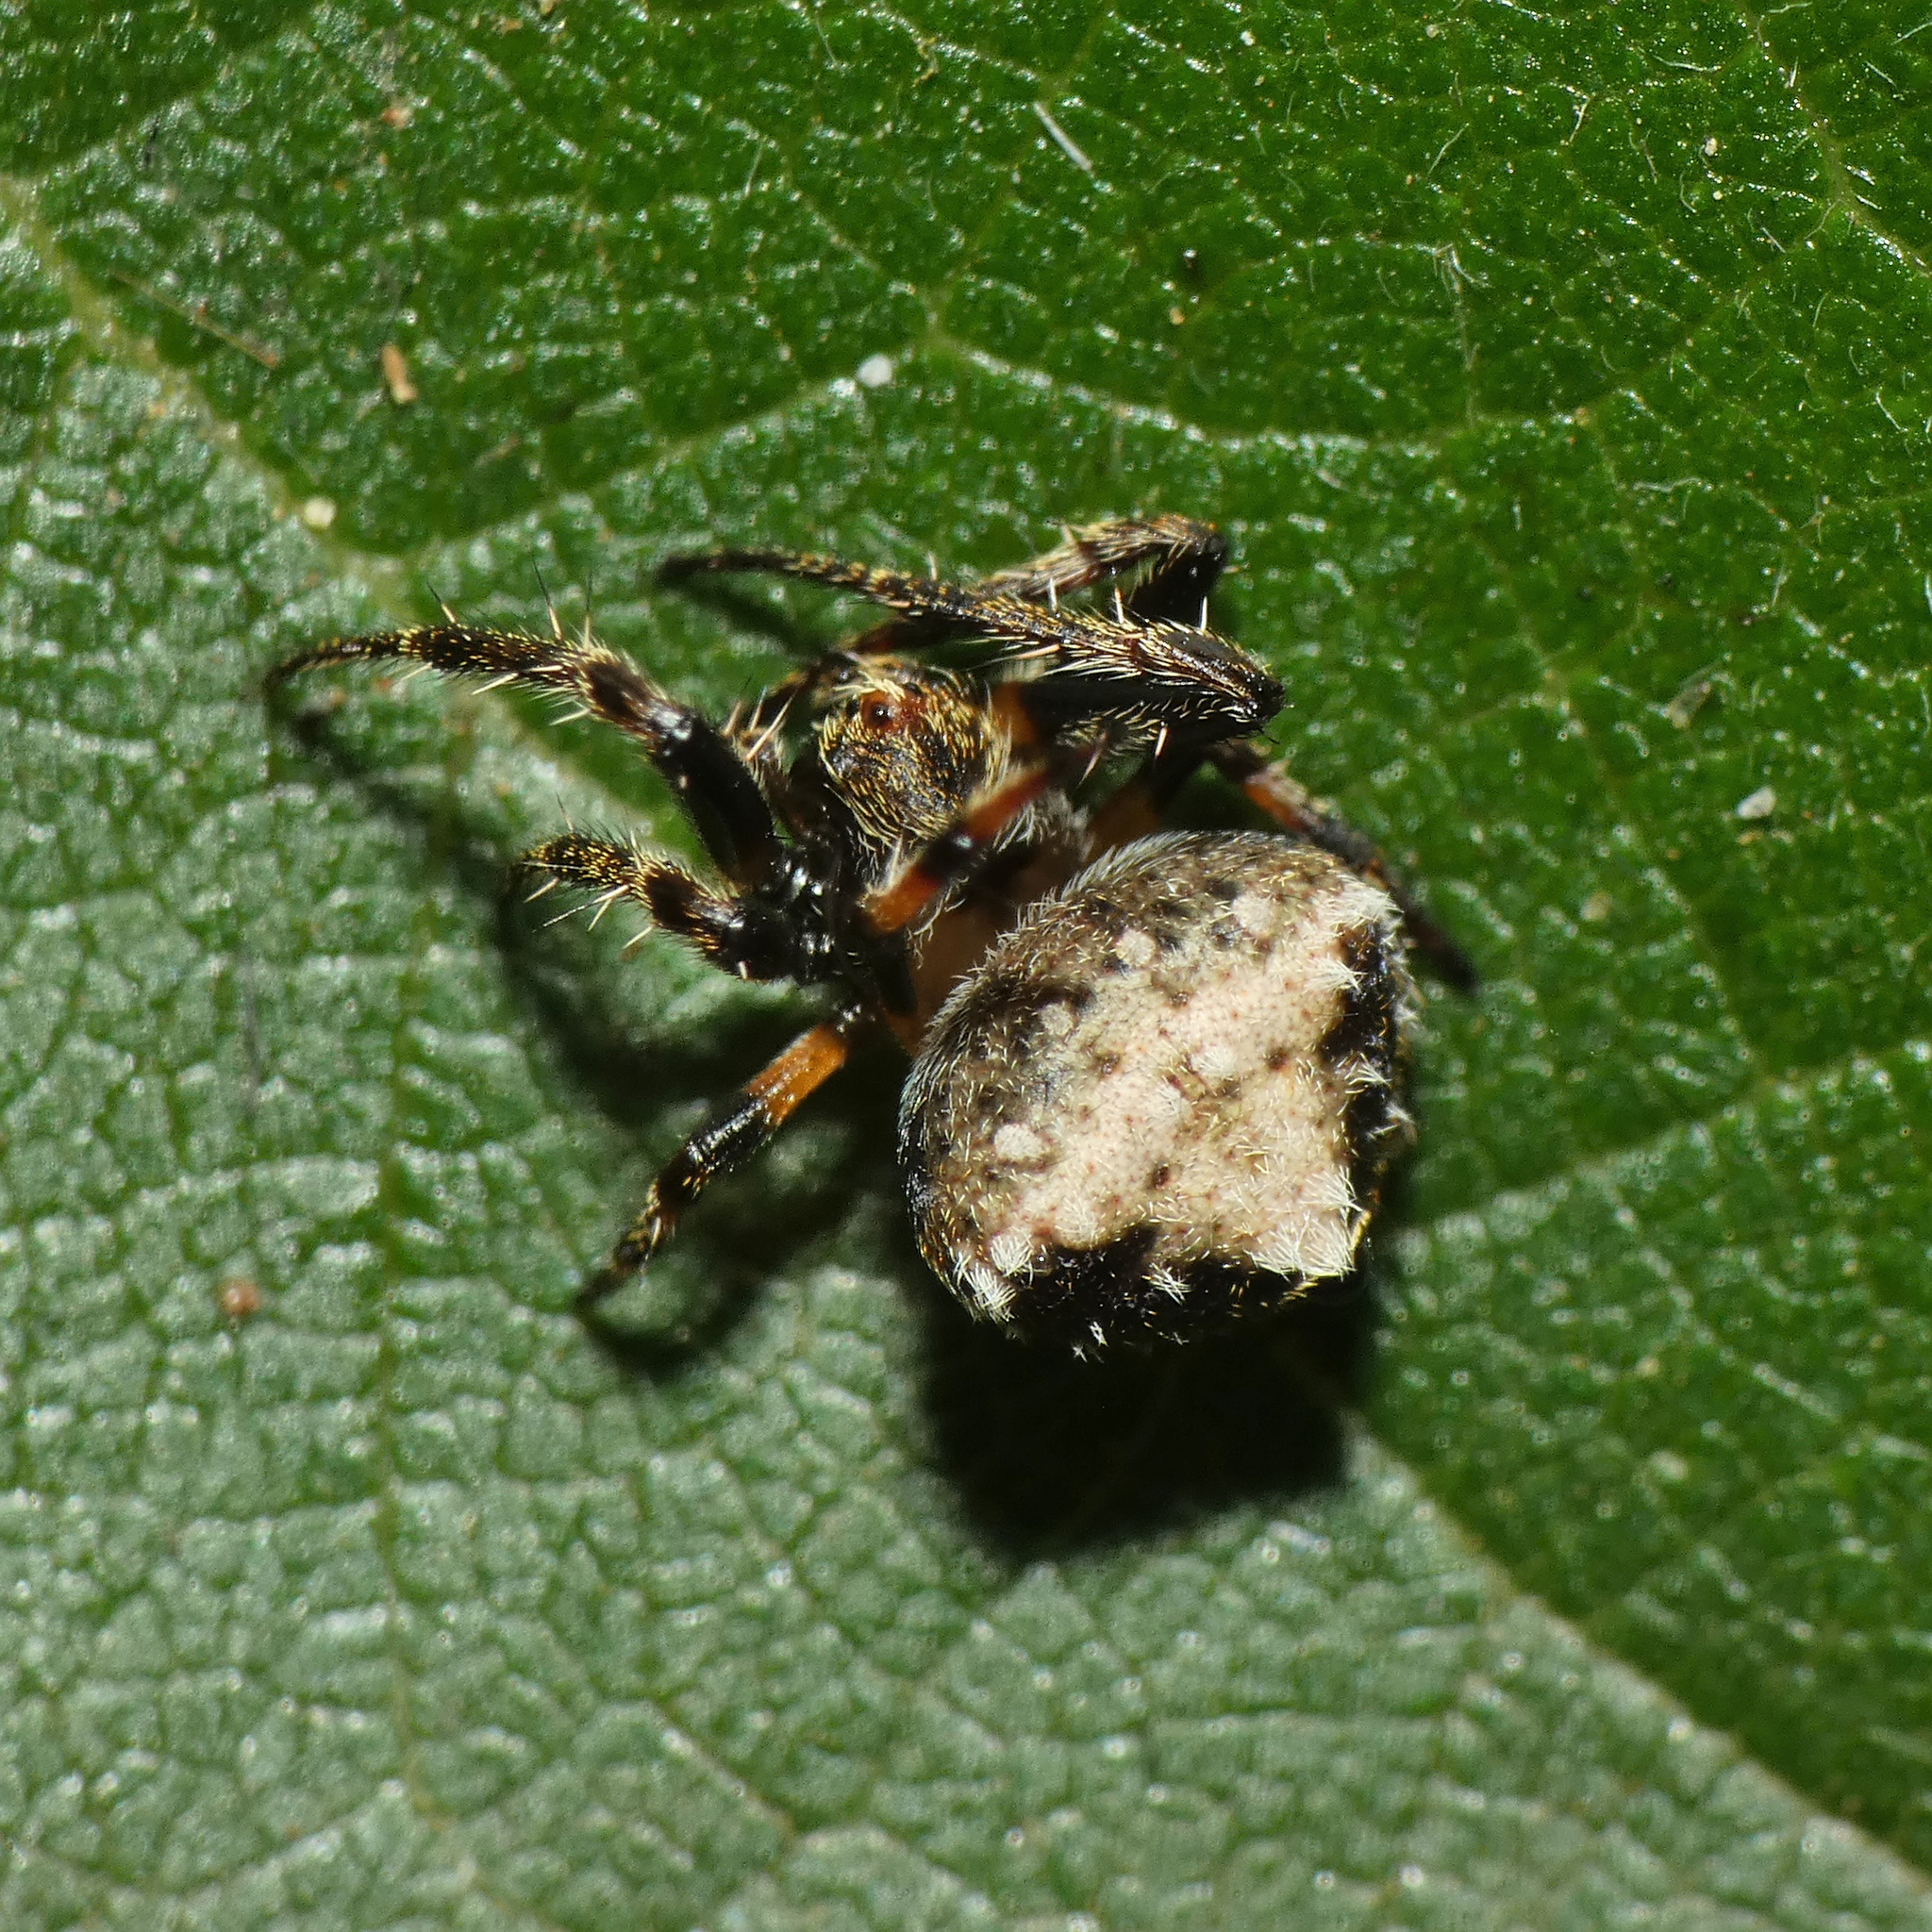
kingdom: Animalia
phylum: Arthropoda
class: Arachnida
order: Araneae
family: Araneidae
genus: Eriovixia
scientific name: Eriovixia excelsa
